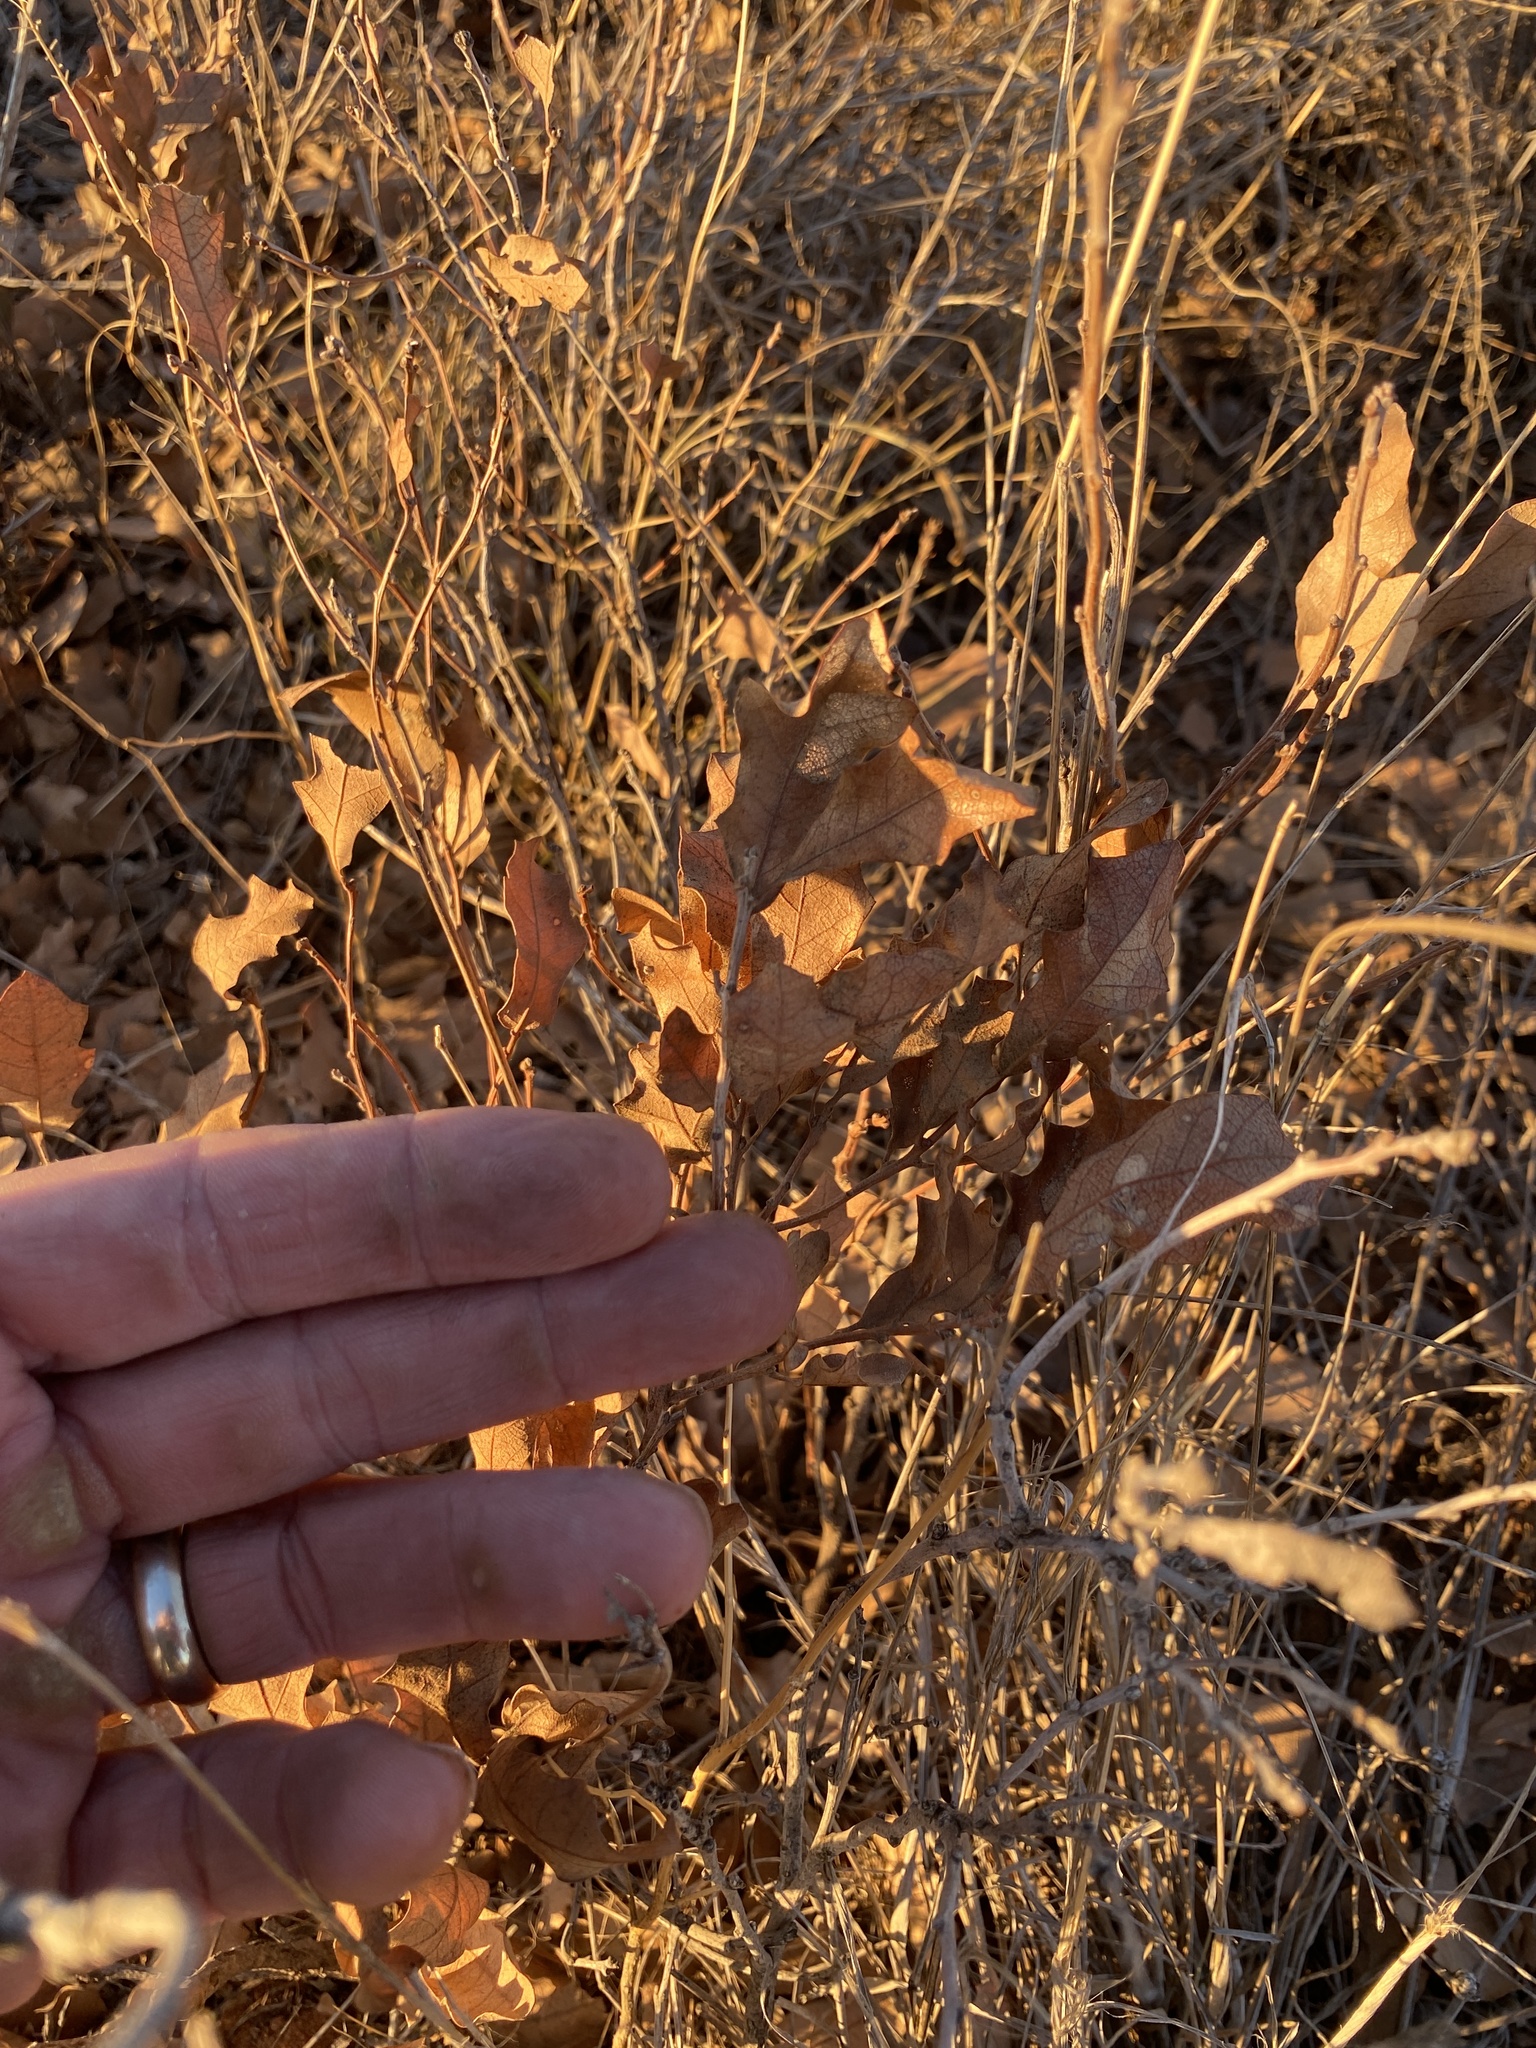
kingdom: Plantae
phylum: Tracheophyta
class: Magnoliopsida
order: Fagales
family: Fagaceae
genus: Quercus
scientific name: Quercus havardii
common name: Shinnery oak
